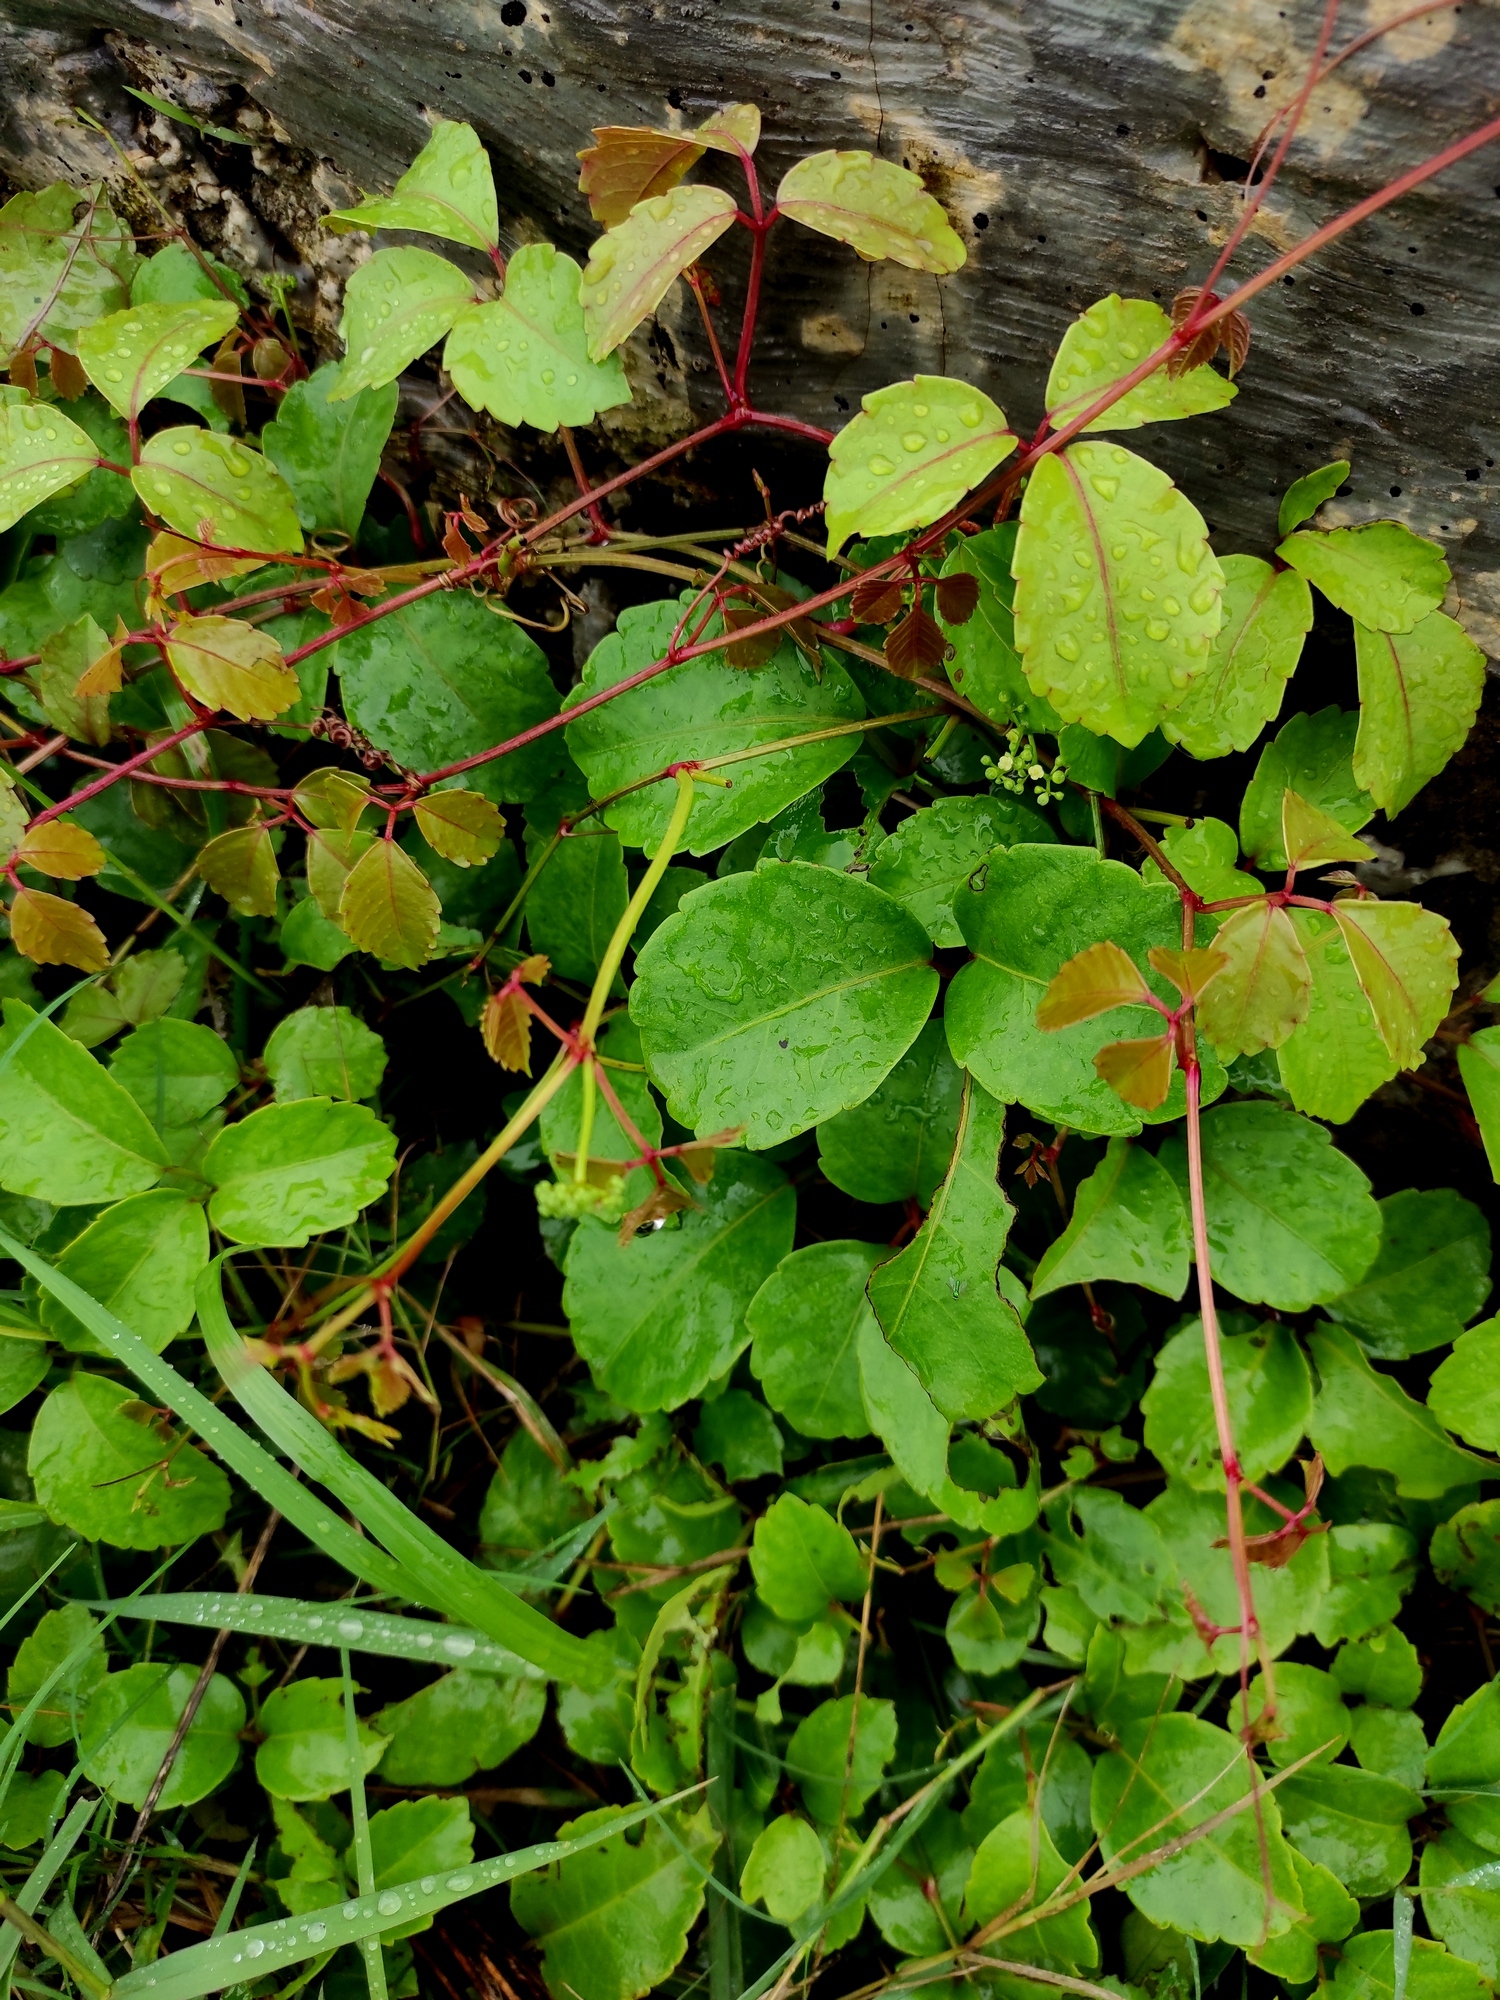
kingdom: Plantae
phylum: Tracheophyta
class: Magnoliopsida
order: Vitales
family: Vitaceae
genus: Causonis
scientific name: Causonis trifolia
